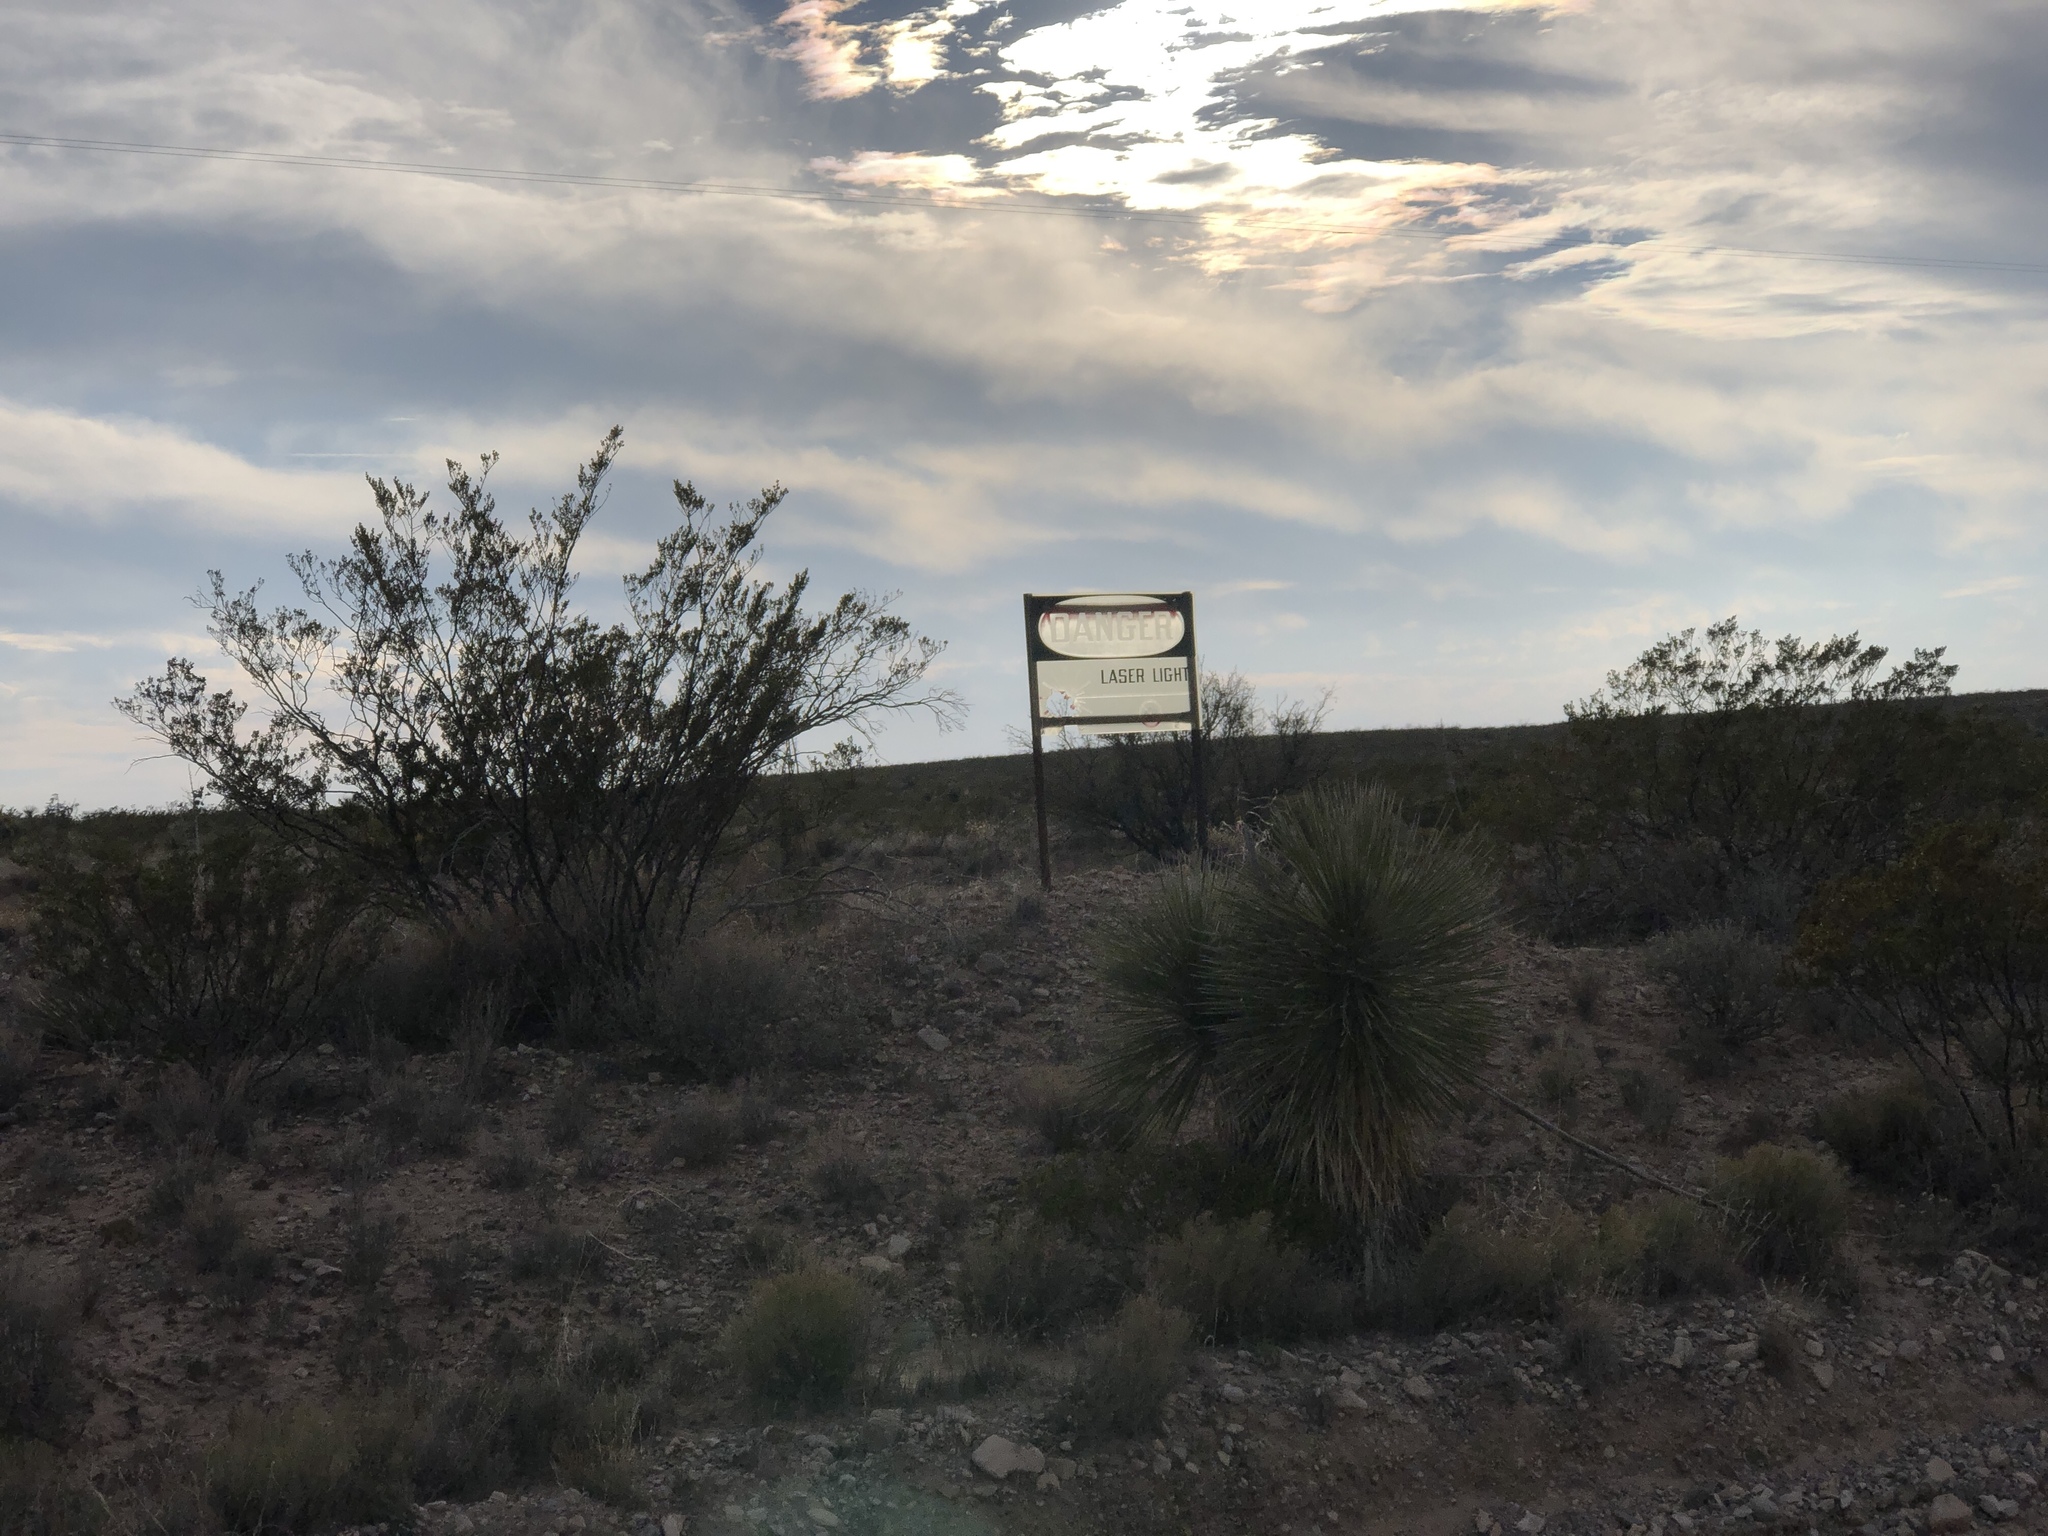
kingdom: Plantae
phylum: Tracheophyta
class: Magnoliopsida
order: Zygophyllales
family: Zygophyllaceae
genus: Larrea
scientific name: Larrea tridentata
